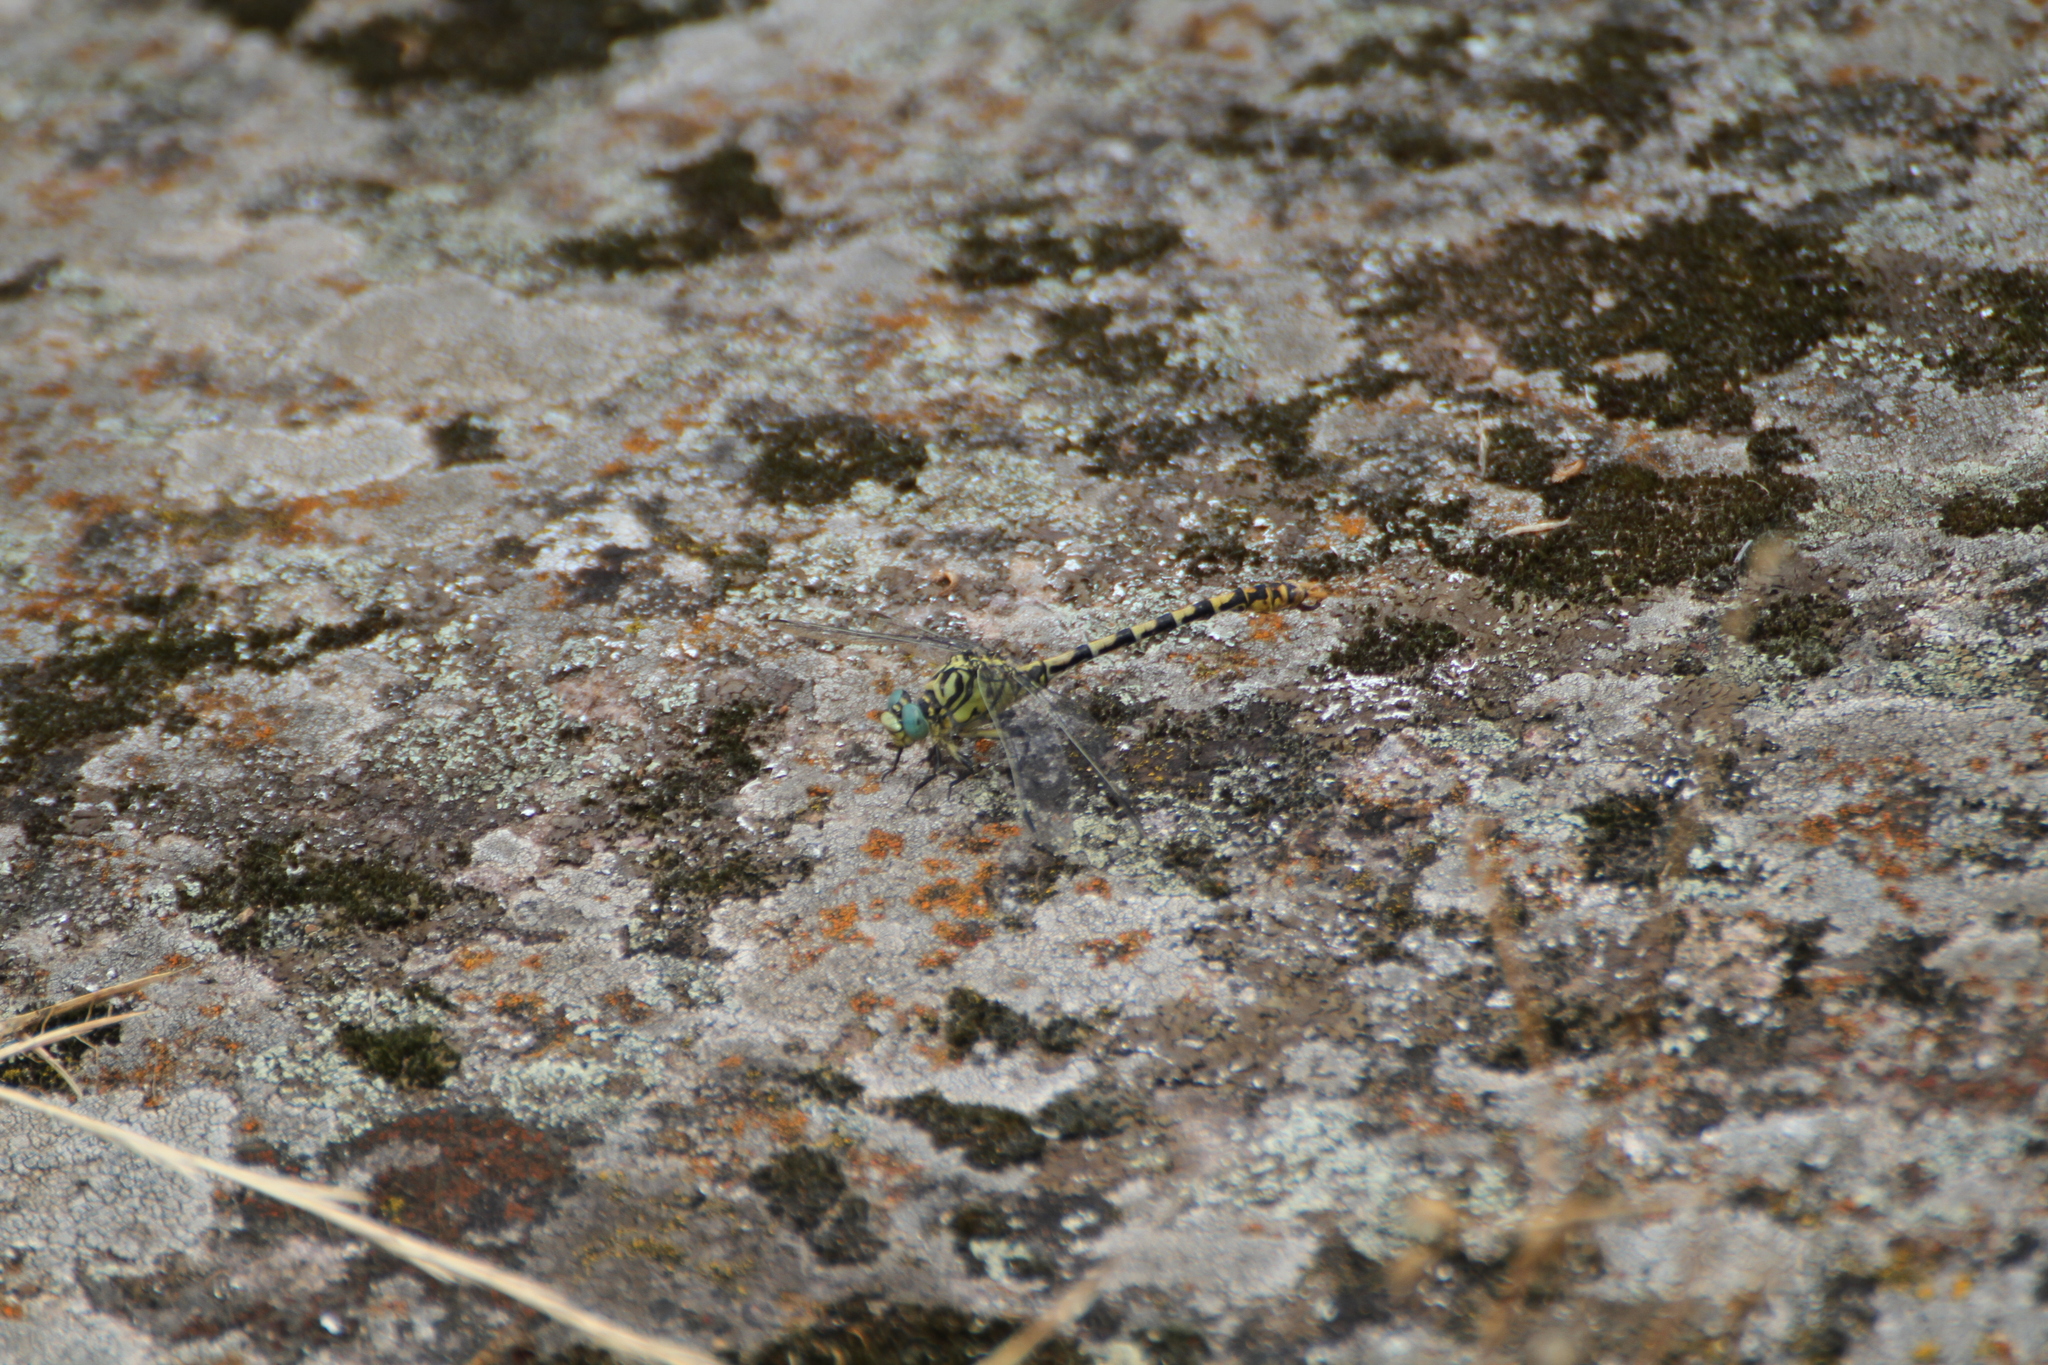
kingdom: Animalia
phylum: Arthropoda
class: Insecta
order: Odonata
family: Gomphidae
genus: Onychogomphus
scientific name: Onychogomphus forcipatus
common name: Small pincertail
